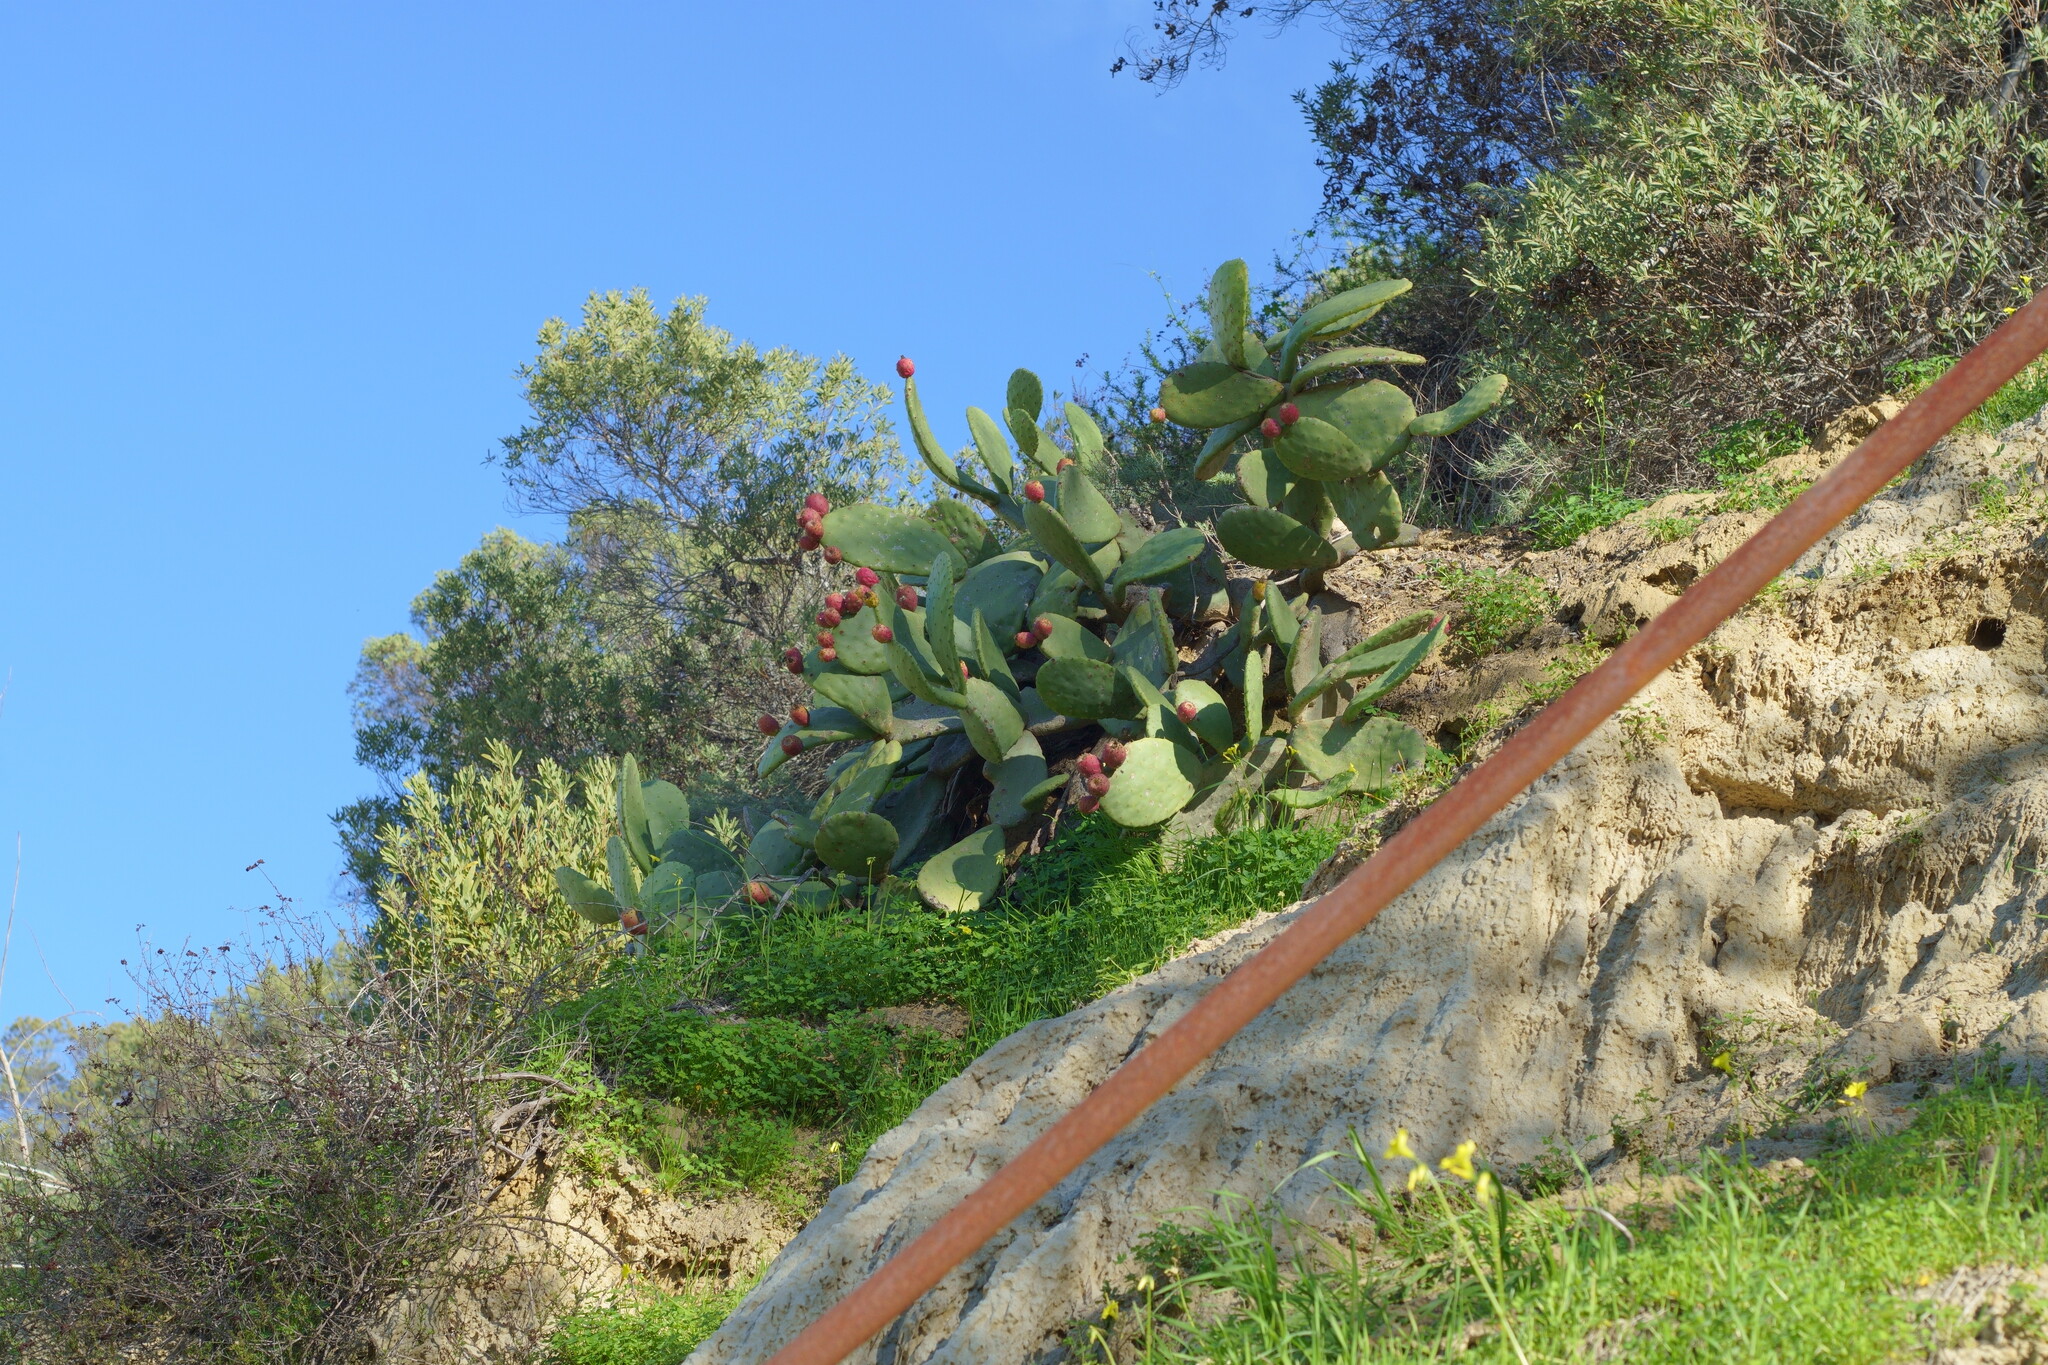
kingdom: Plantae
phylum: Tracheophyta
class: Magnoliopsida
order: Caryophyllales
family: Cactaceae
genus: Opuntia
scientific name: Opuntia ficus-indica
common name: Barbary fig
